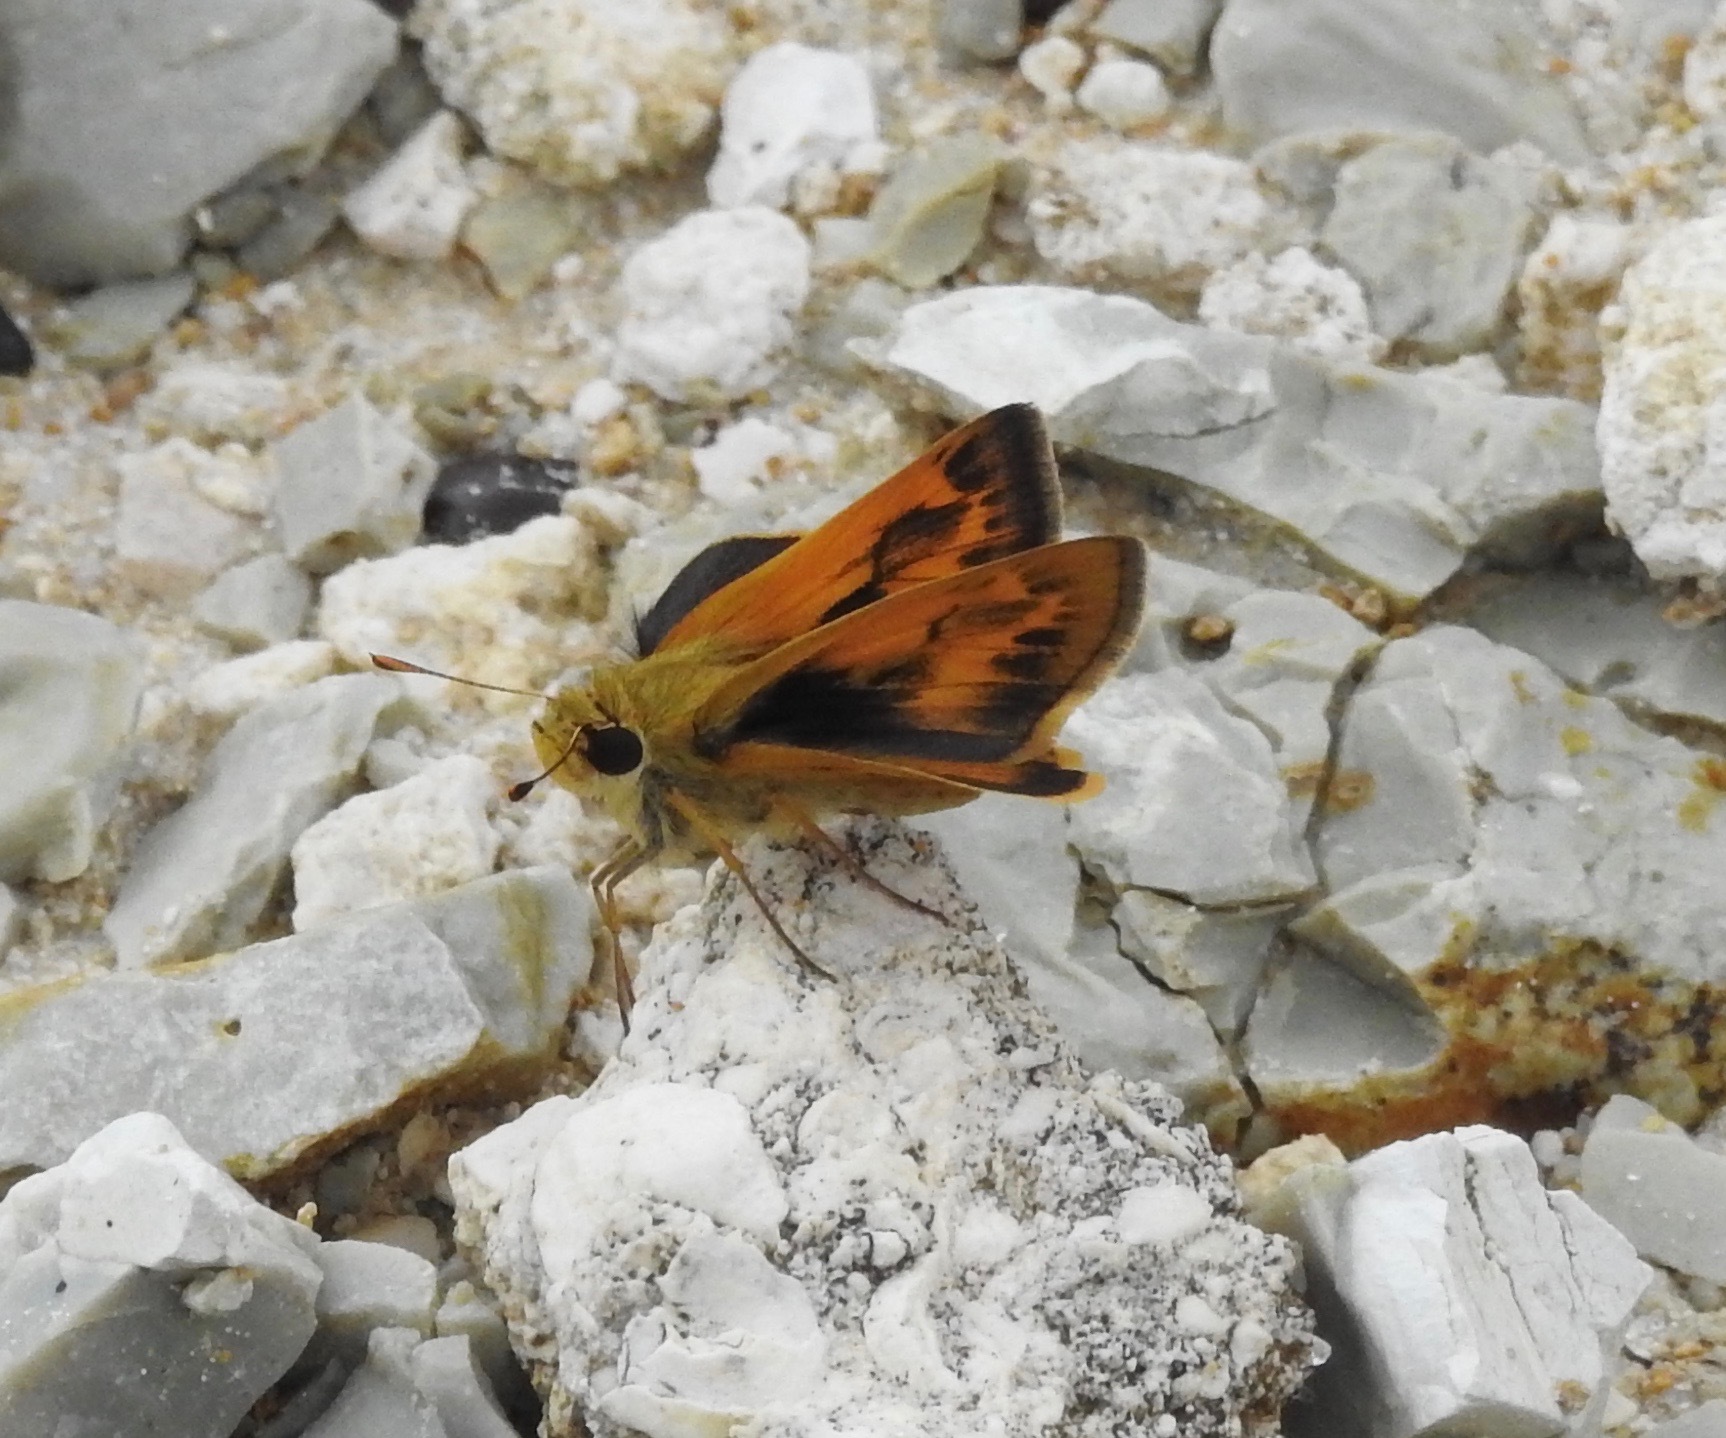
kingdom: Animalia
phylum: Arthropoda
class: Insecta
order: Lepidoptera
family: Hesperiidae
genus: Polites
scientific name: Polites vibex
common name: Whirlabout
